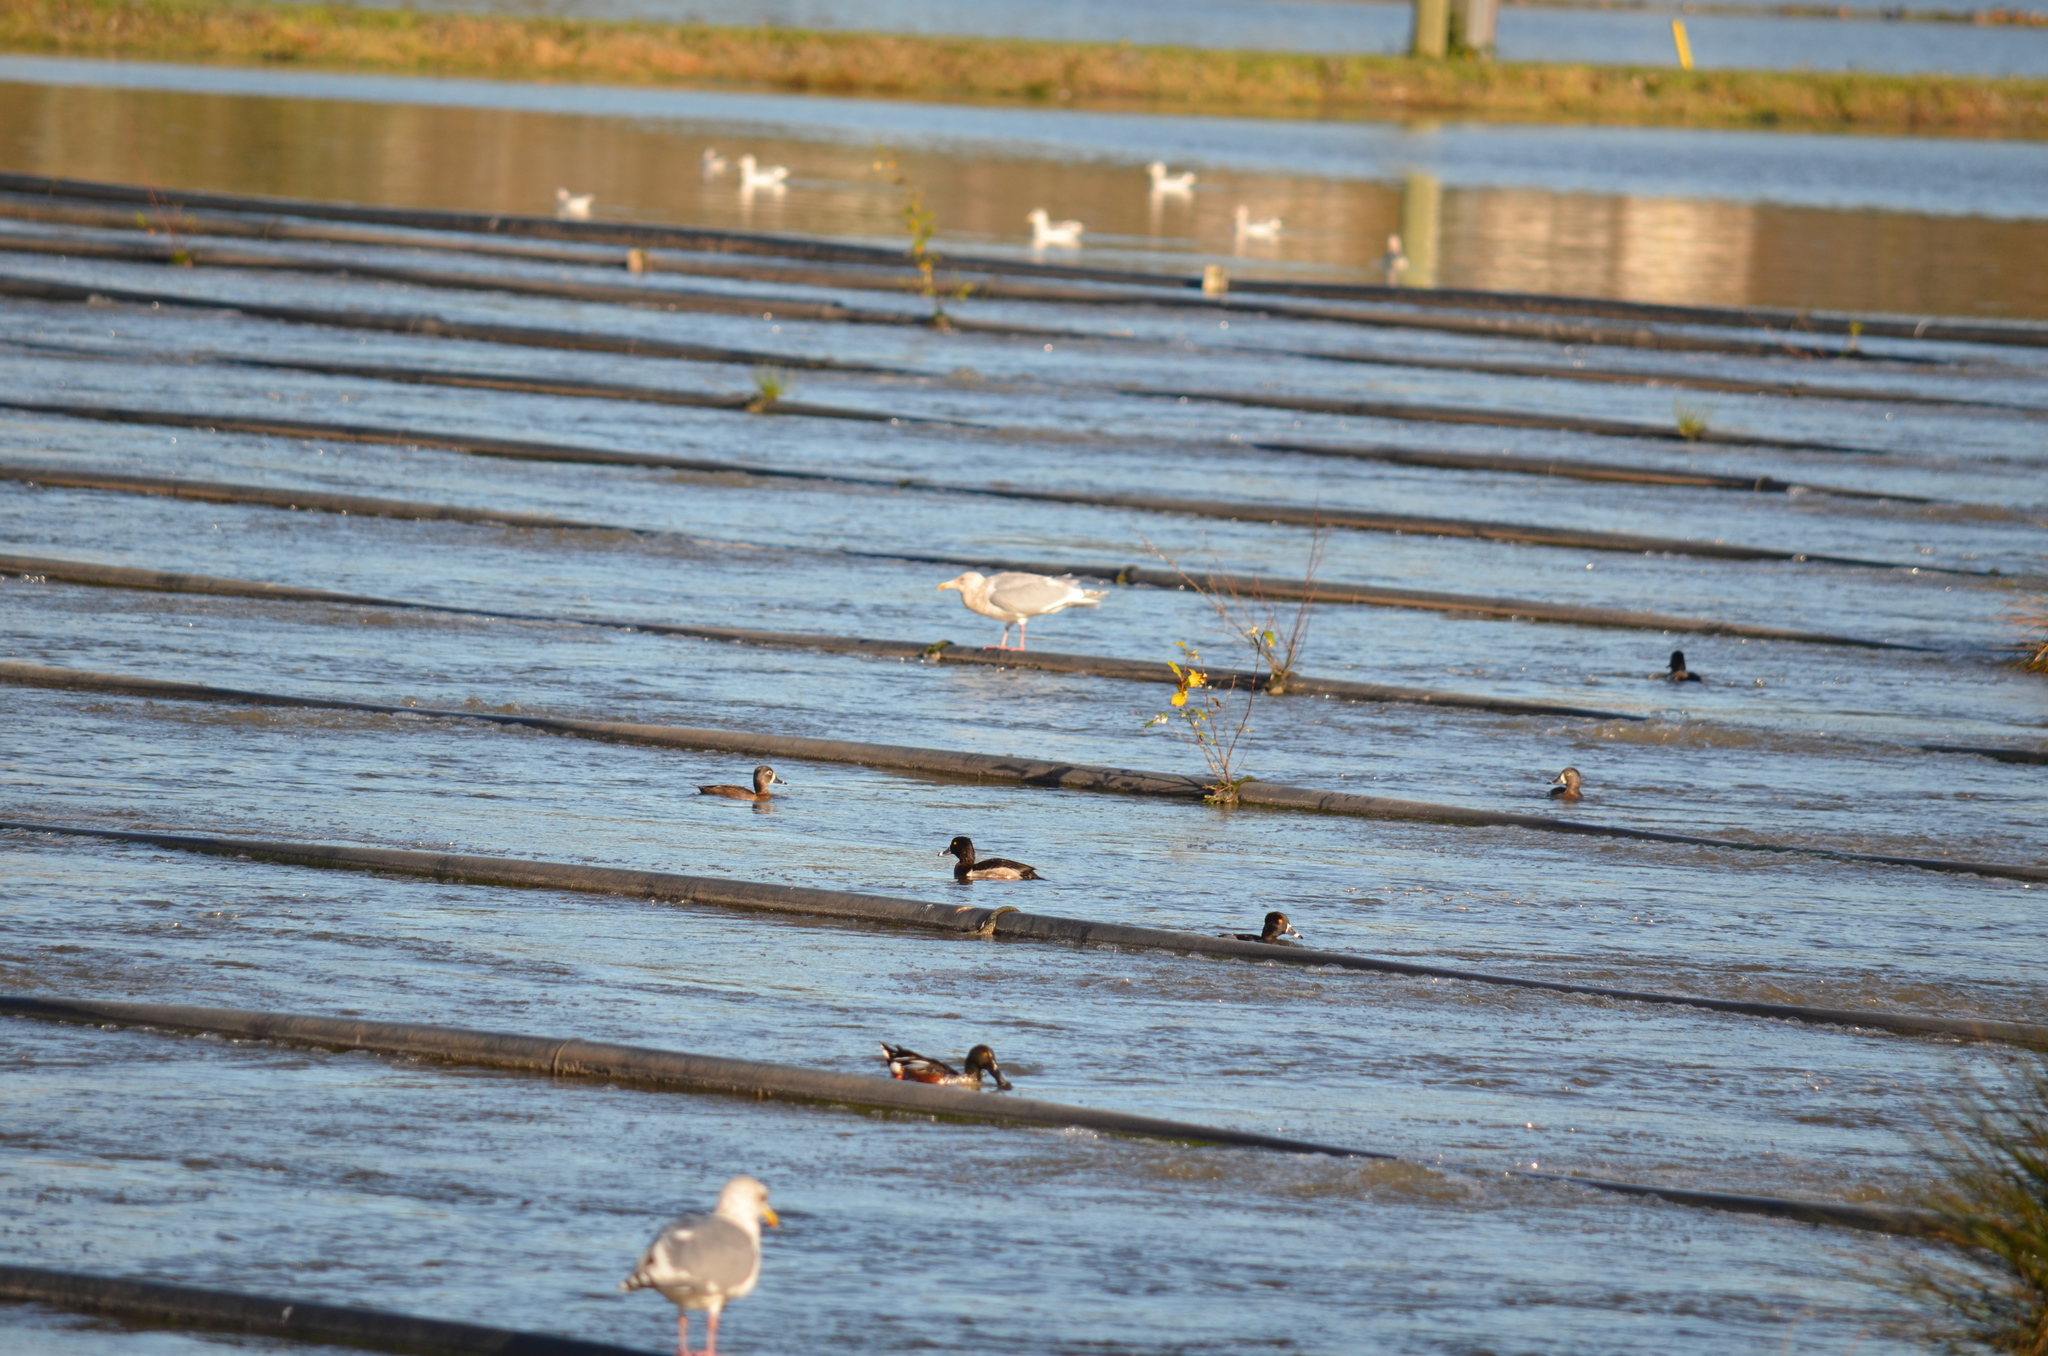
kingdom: Animalia
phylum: Chordata
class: Aves
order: Anseriformes
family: Anatidae
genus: Spatula
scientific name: Spatula clypeata
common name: Northern shoveler
